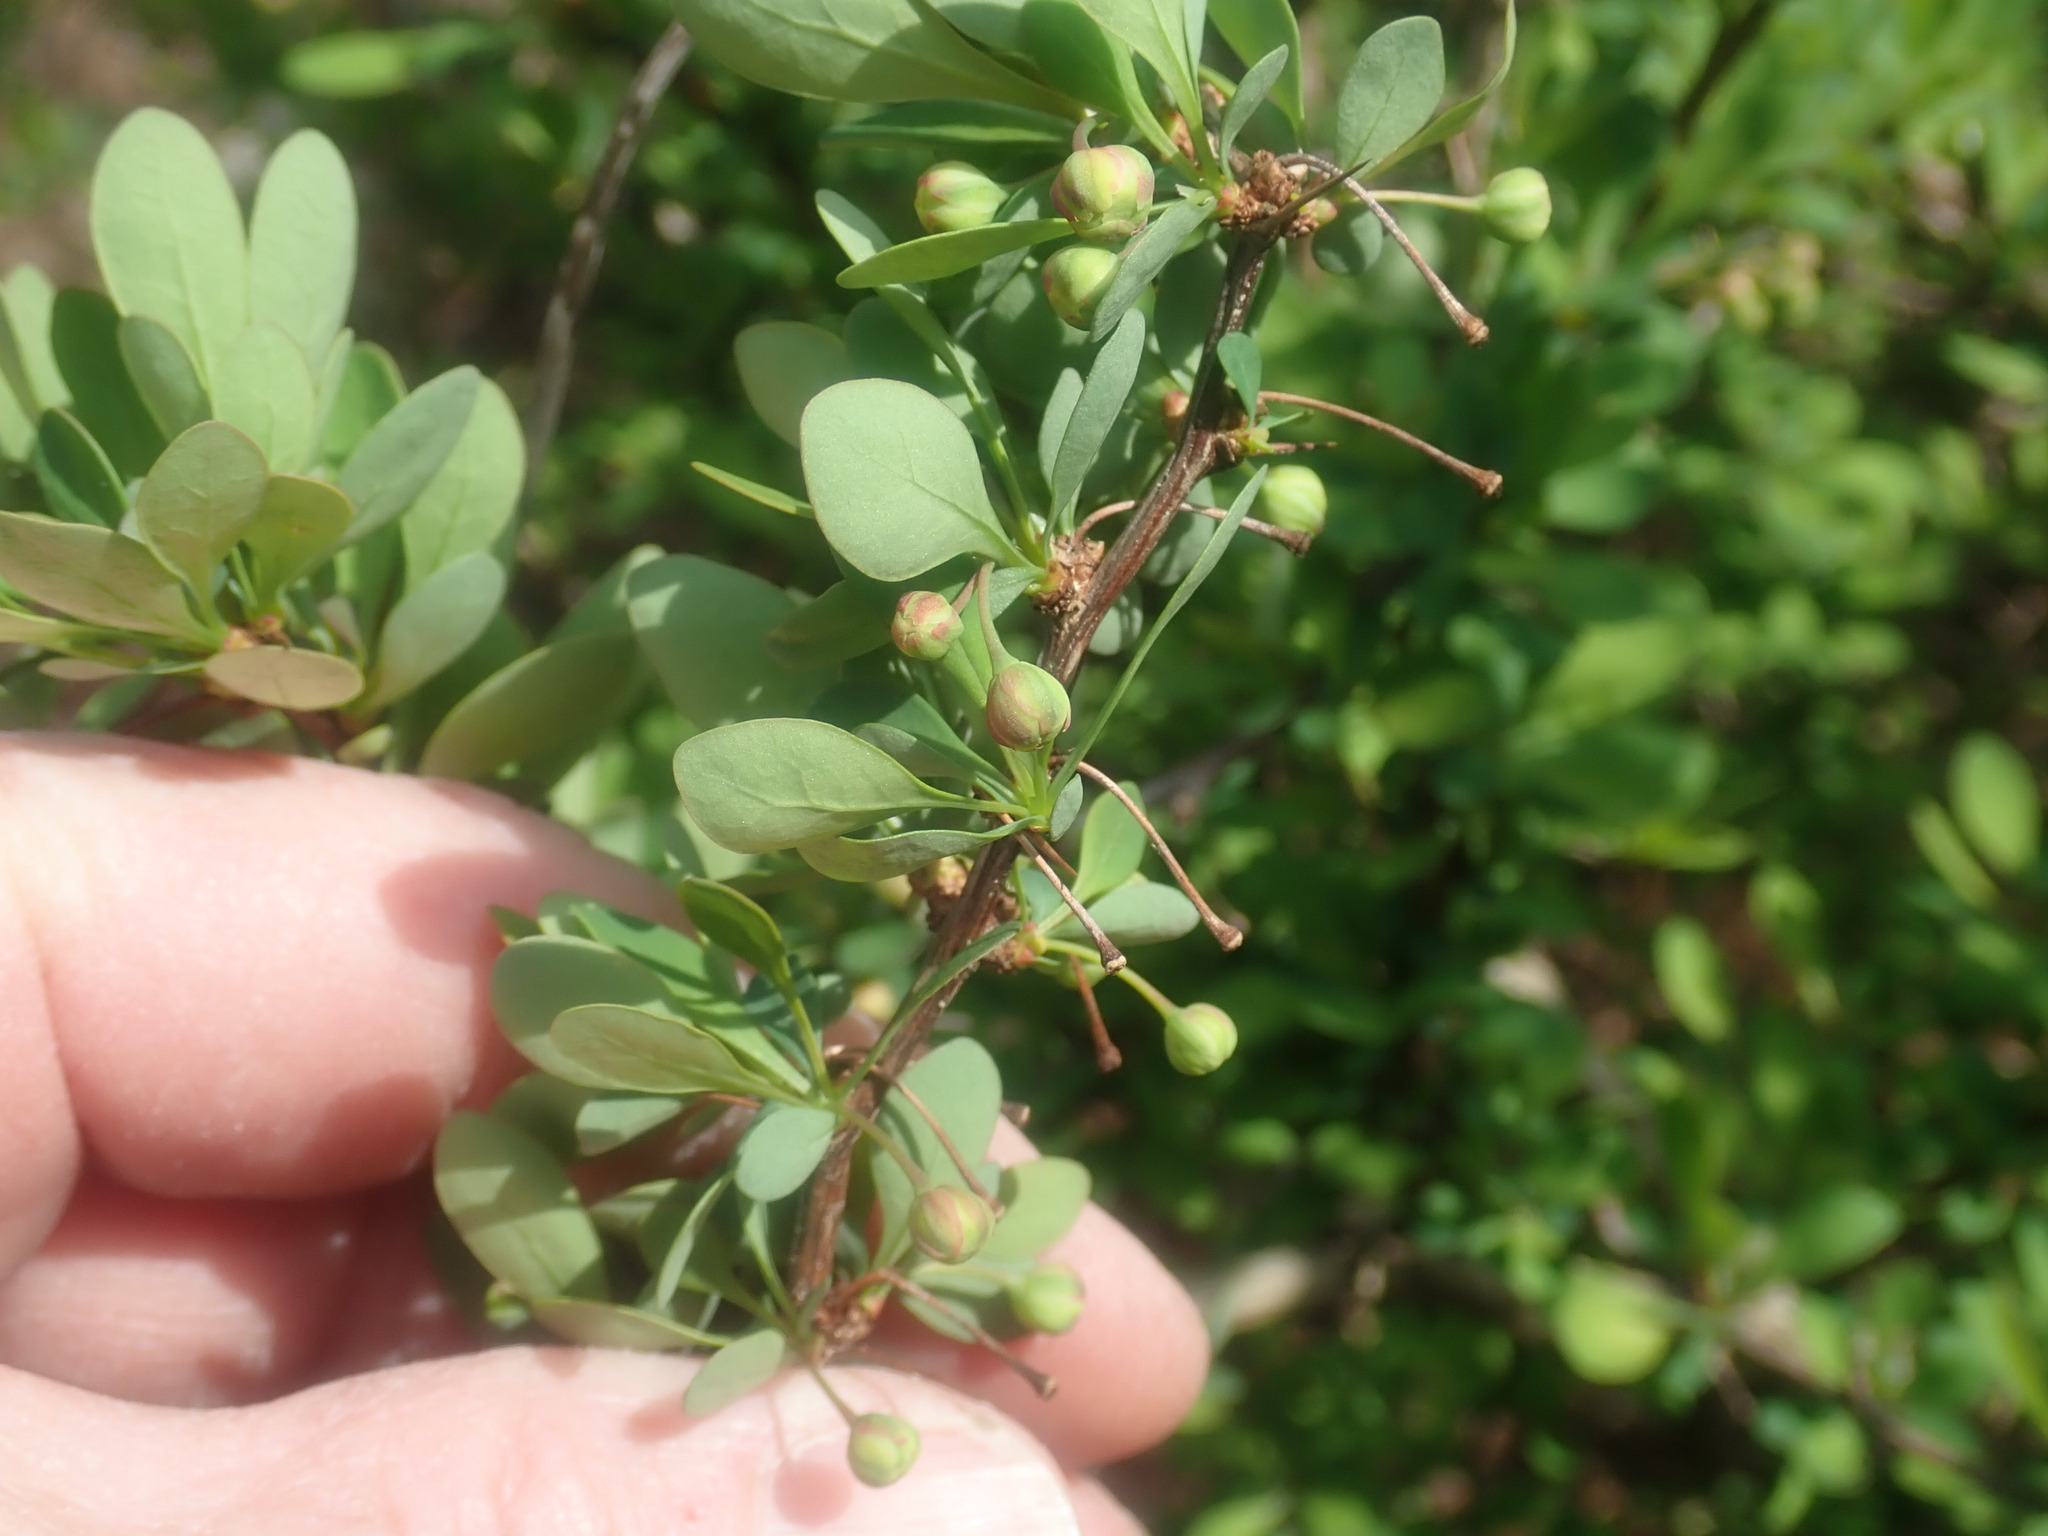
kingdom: Plantae
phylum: Tracheophyta
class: Magnoliopsida
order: Ranunculales
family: Berberidaceae
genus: Berberis
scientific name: Berberis thunbergii
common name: Japanese barberry
